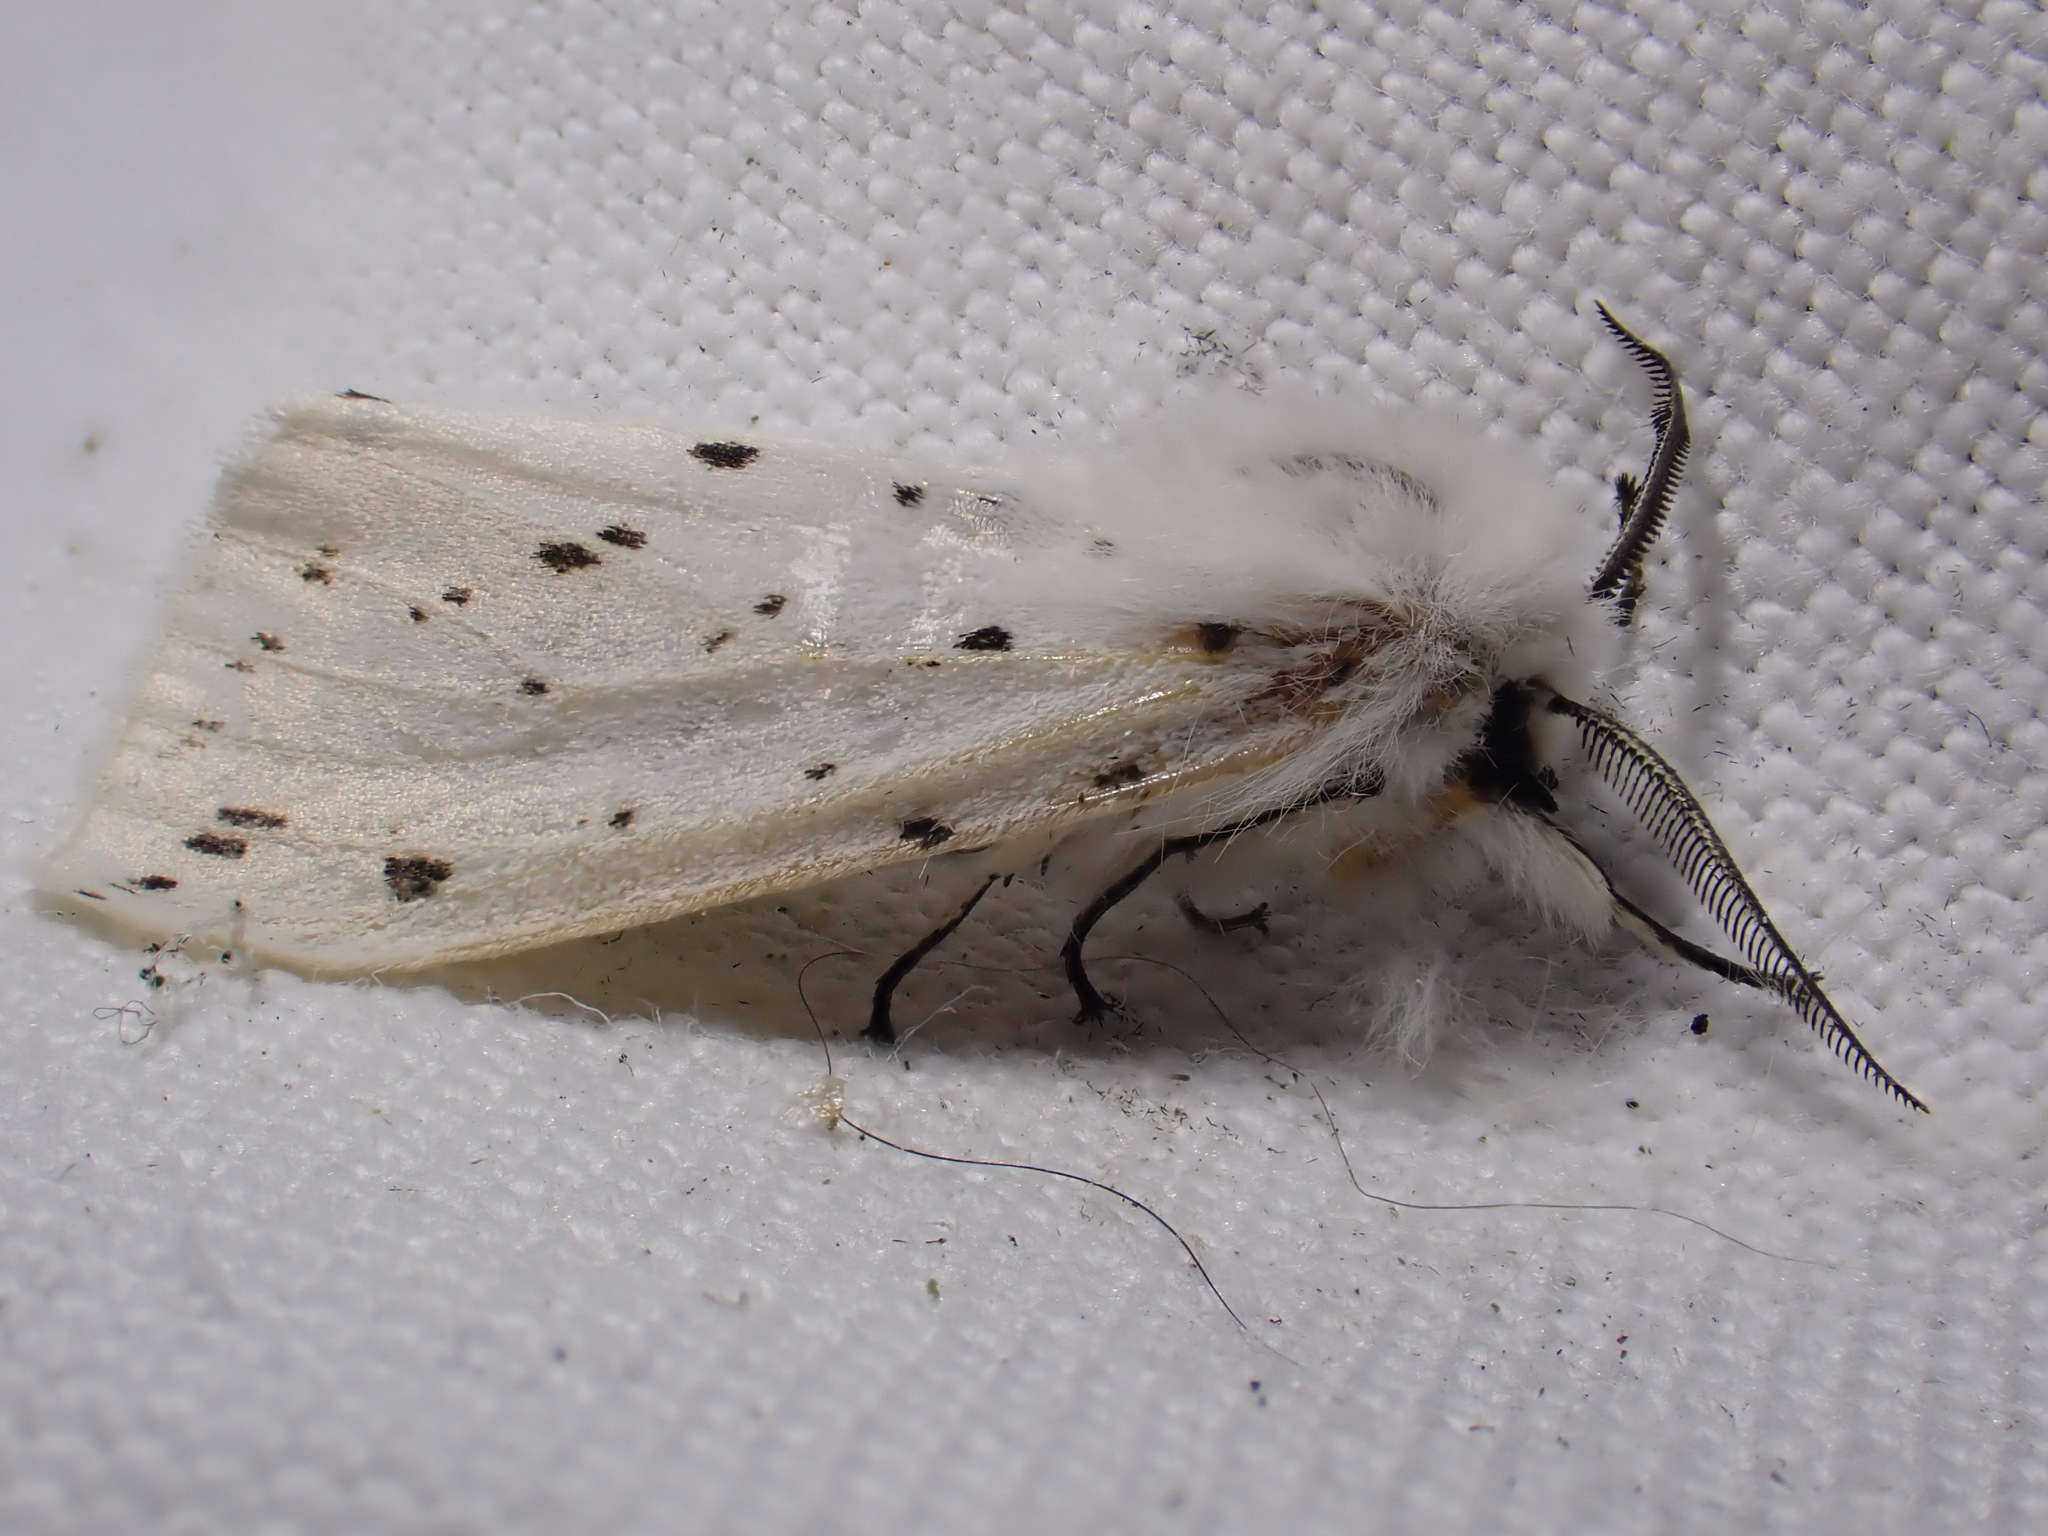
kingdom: Animalia
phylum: Arthropoda
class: Insecta
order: Lepidoptera
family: Erebidae
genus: Spilosoma
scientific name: Spilosoma lubricipeda
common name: White ermine
